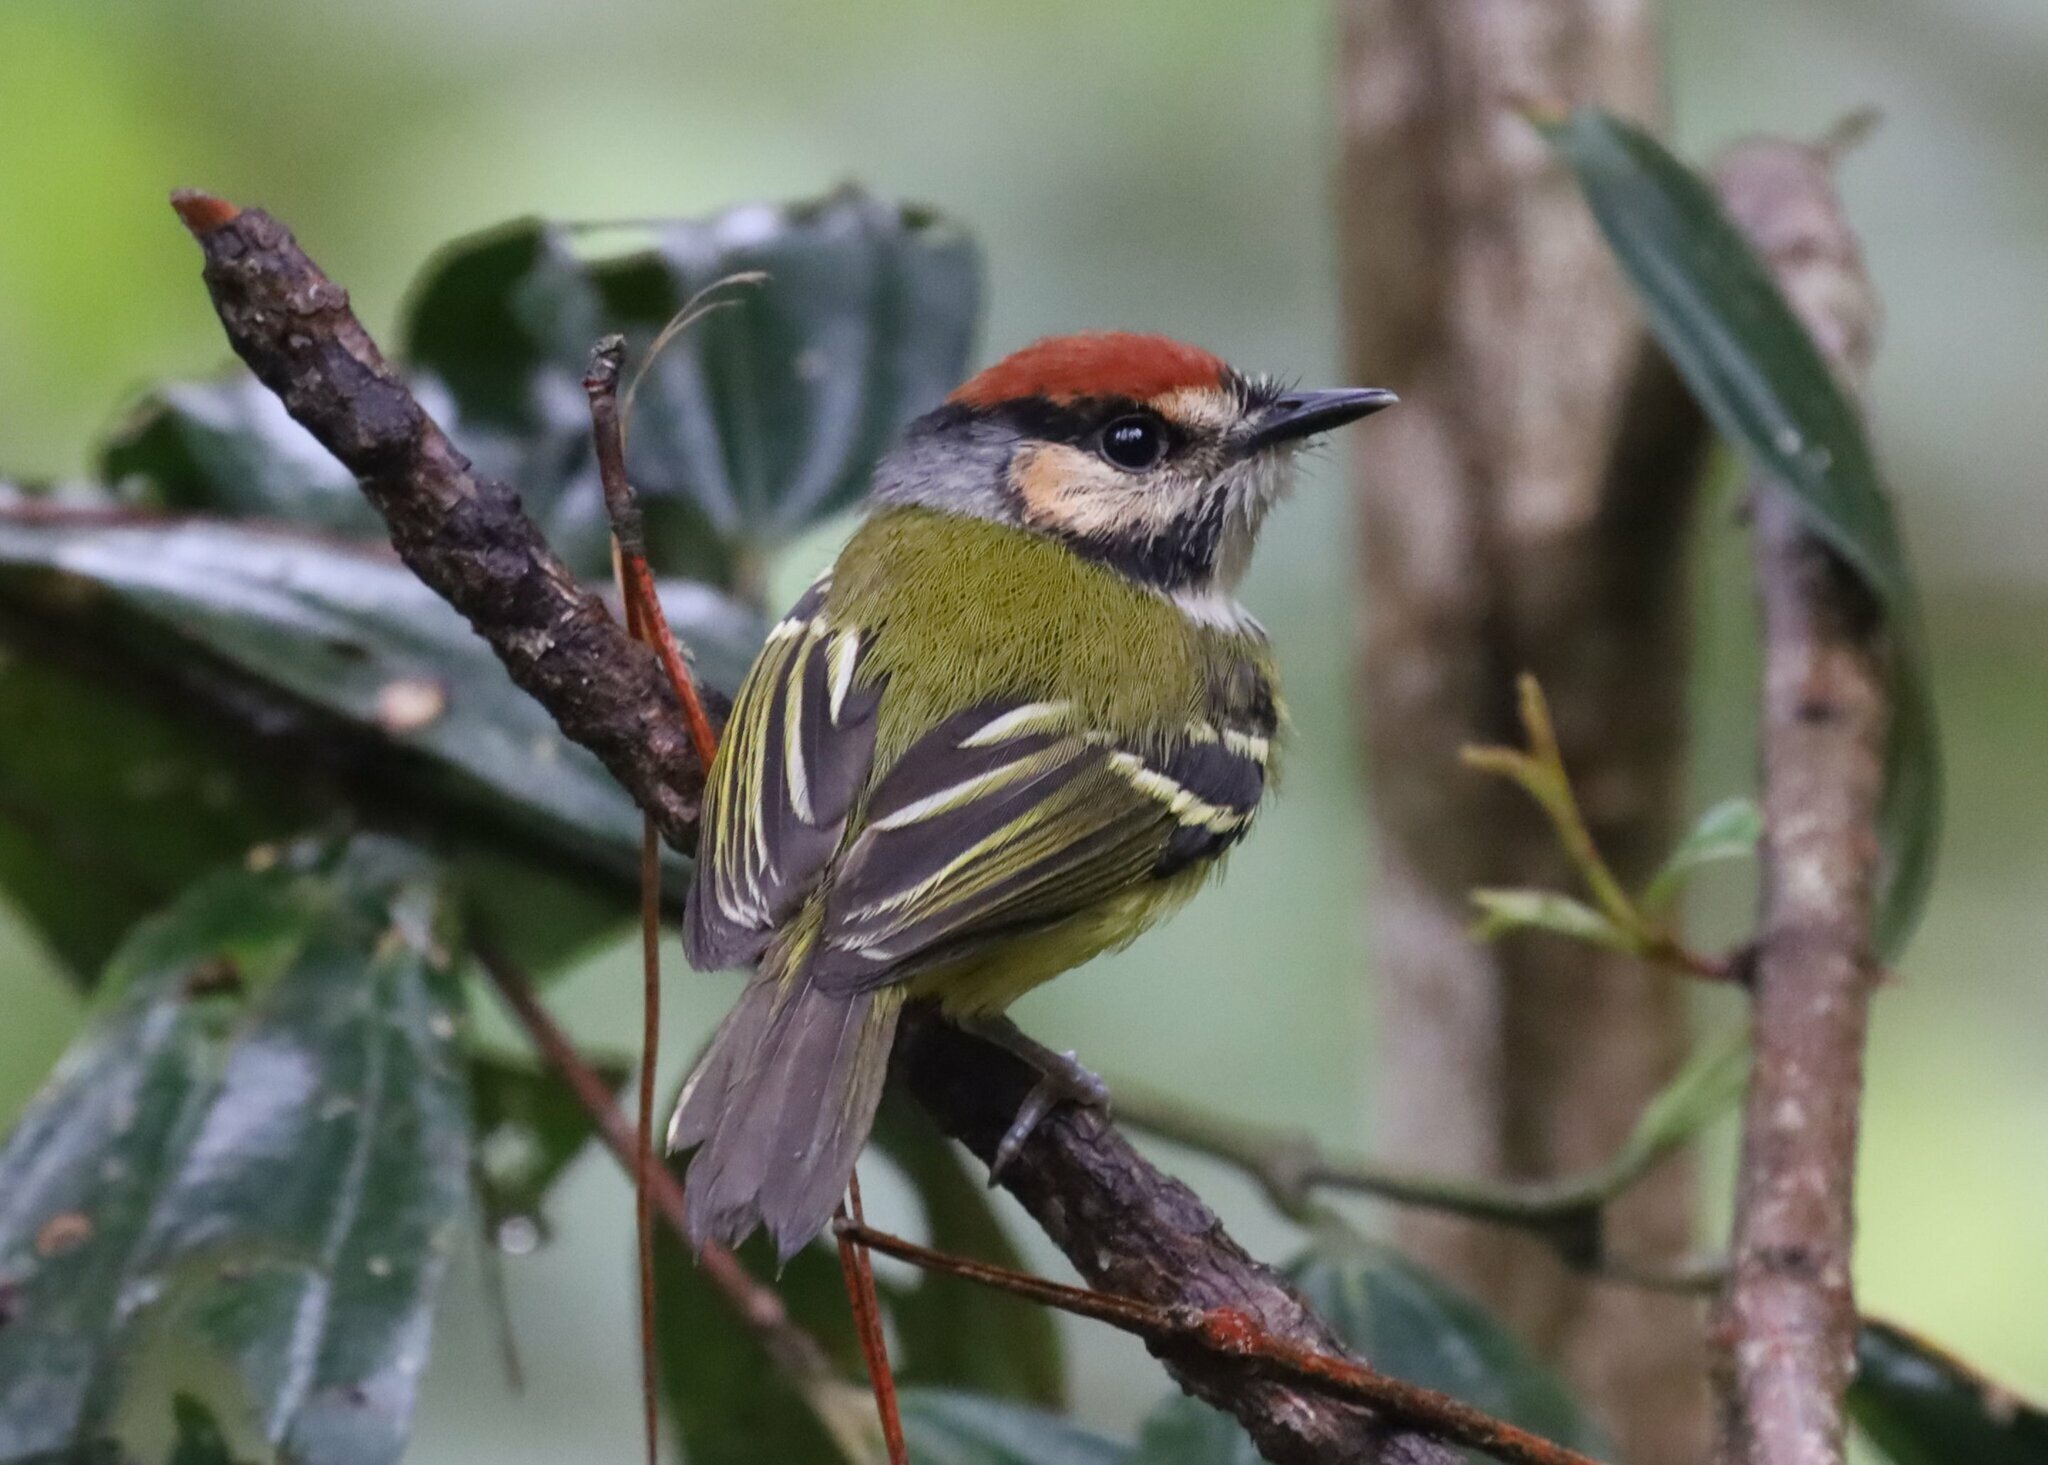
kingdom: Animalia
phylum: Chordata
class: Aves
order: Passeriformes
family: Tyrannidae
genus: Poecilotriccus
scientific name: Poecilotriccus ruficeps
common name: Rufous-crowned tody-flycatcher
